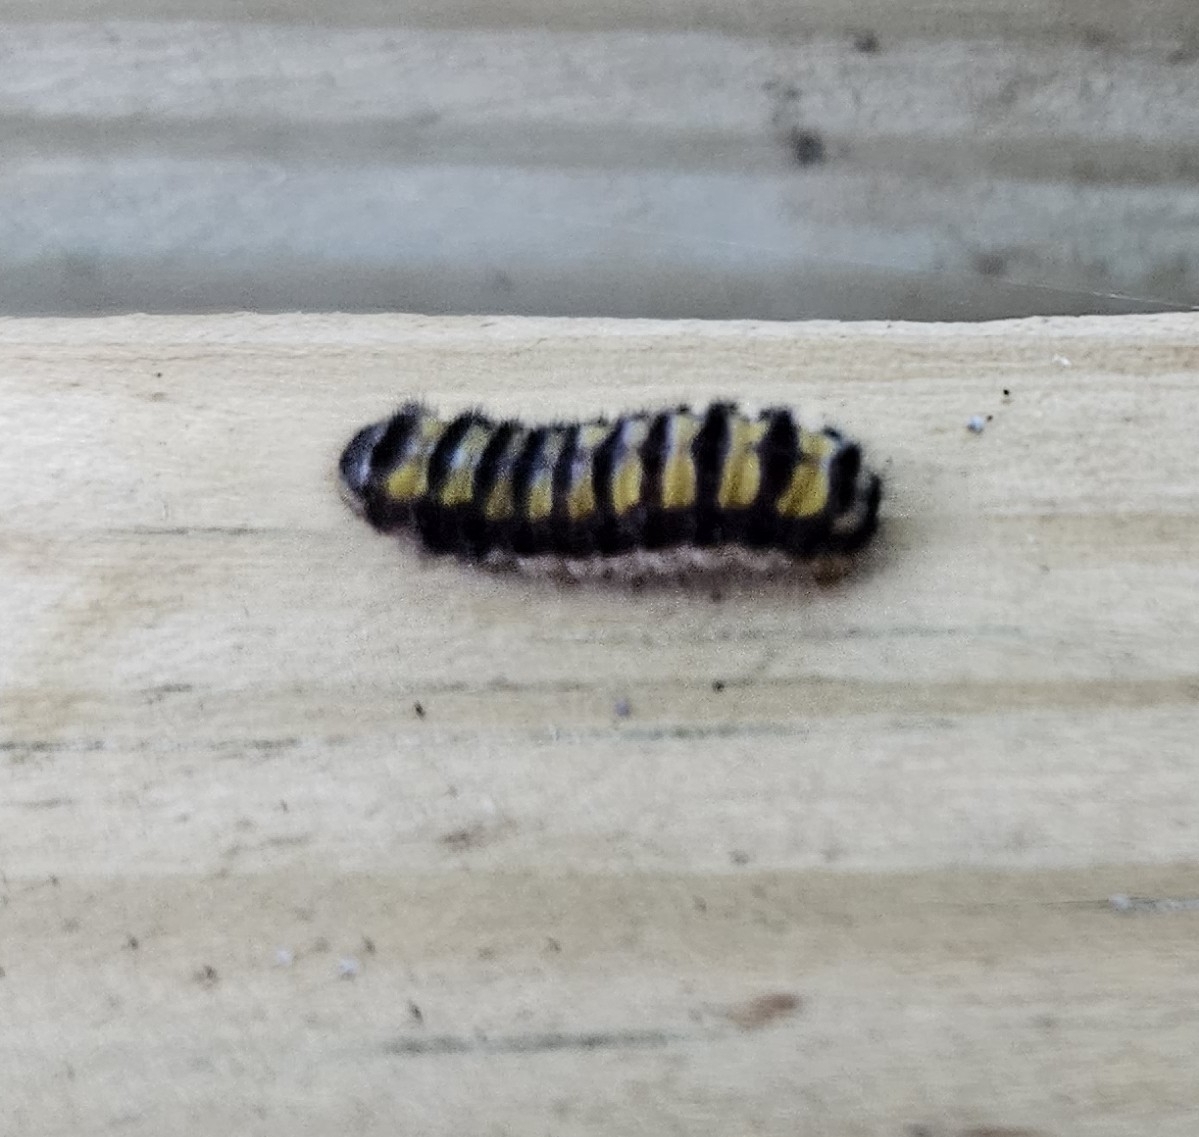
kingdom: Animalia
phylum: Arthropoda
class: Insecta
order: Lepidoptera
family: Zygaenidae
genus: Harrisina
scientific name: Harrisina americana
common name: Grapeleaf skeletonizer moth
